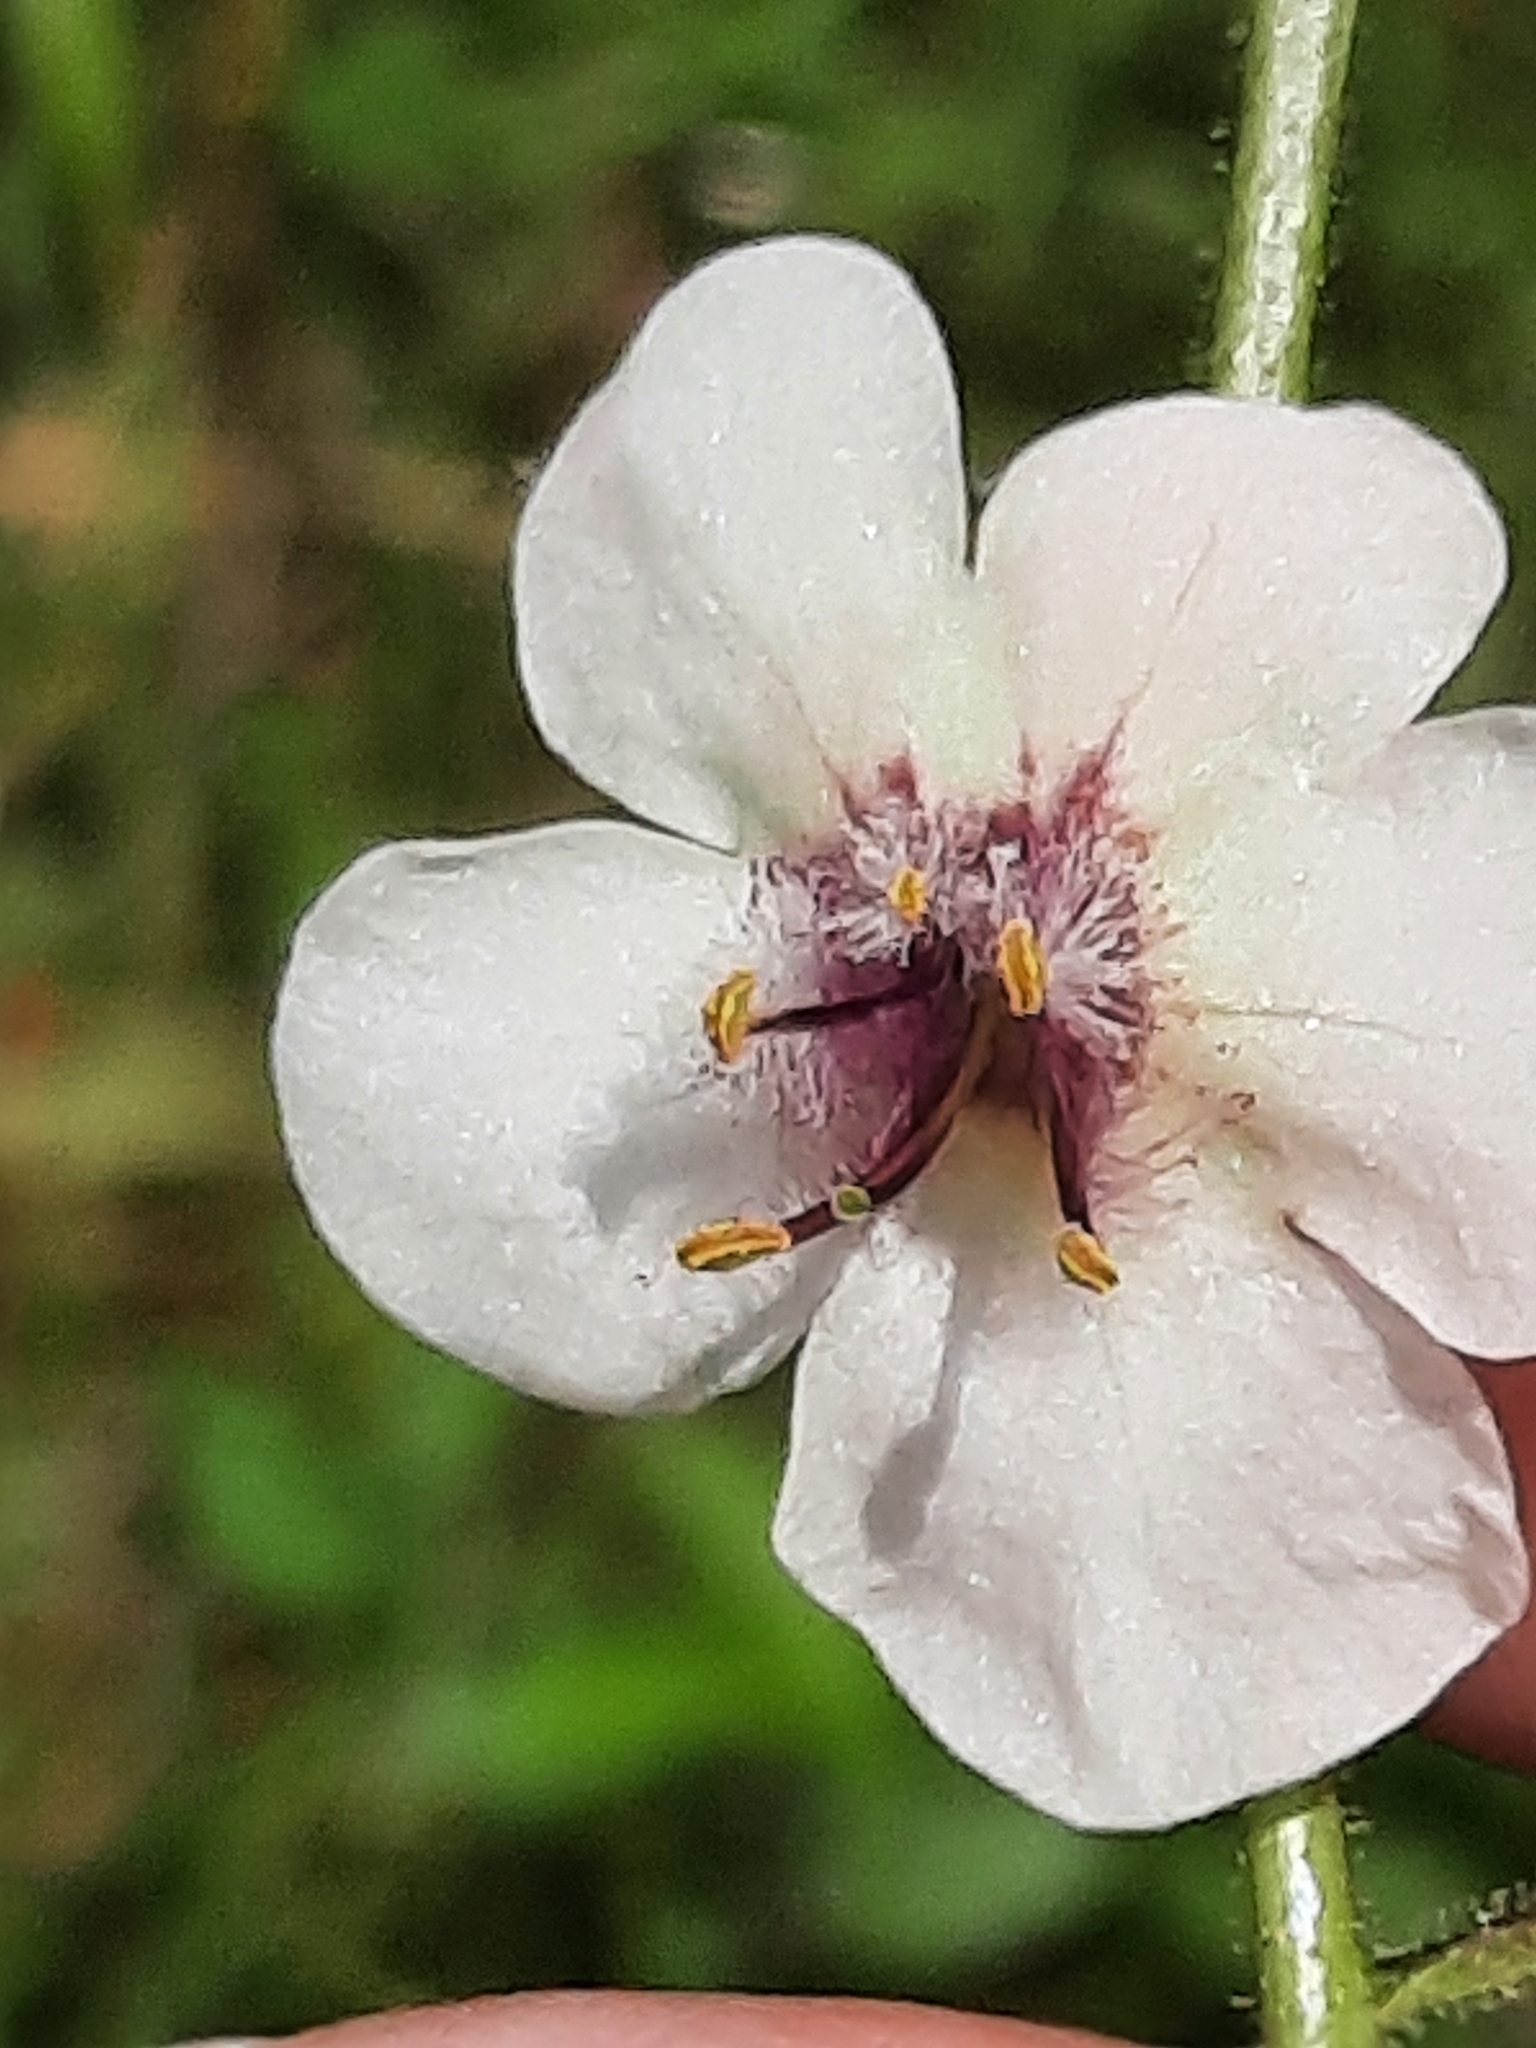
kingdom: Plantae
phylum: Tracheophyta
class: Magnoliopsida
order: Lamiales
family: Scrophulariaceae
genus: Verbascum
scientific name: Verbascum blattaria
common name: Moth mullein
